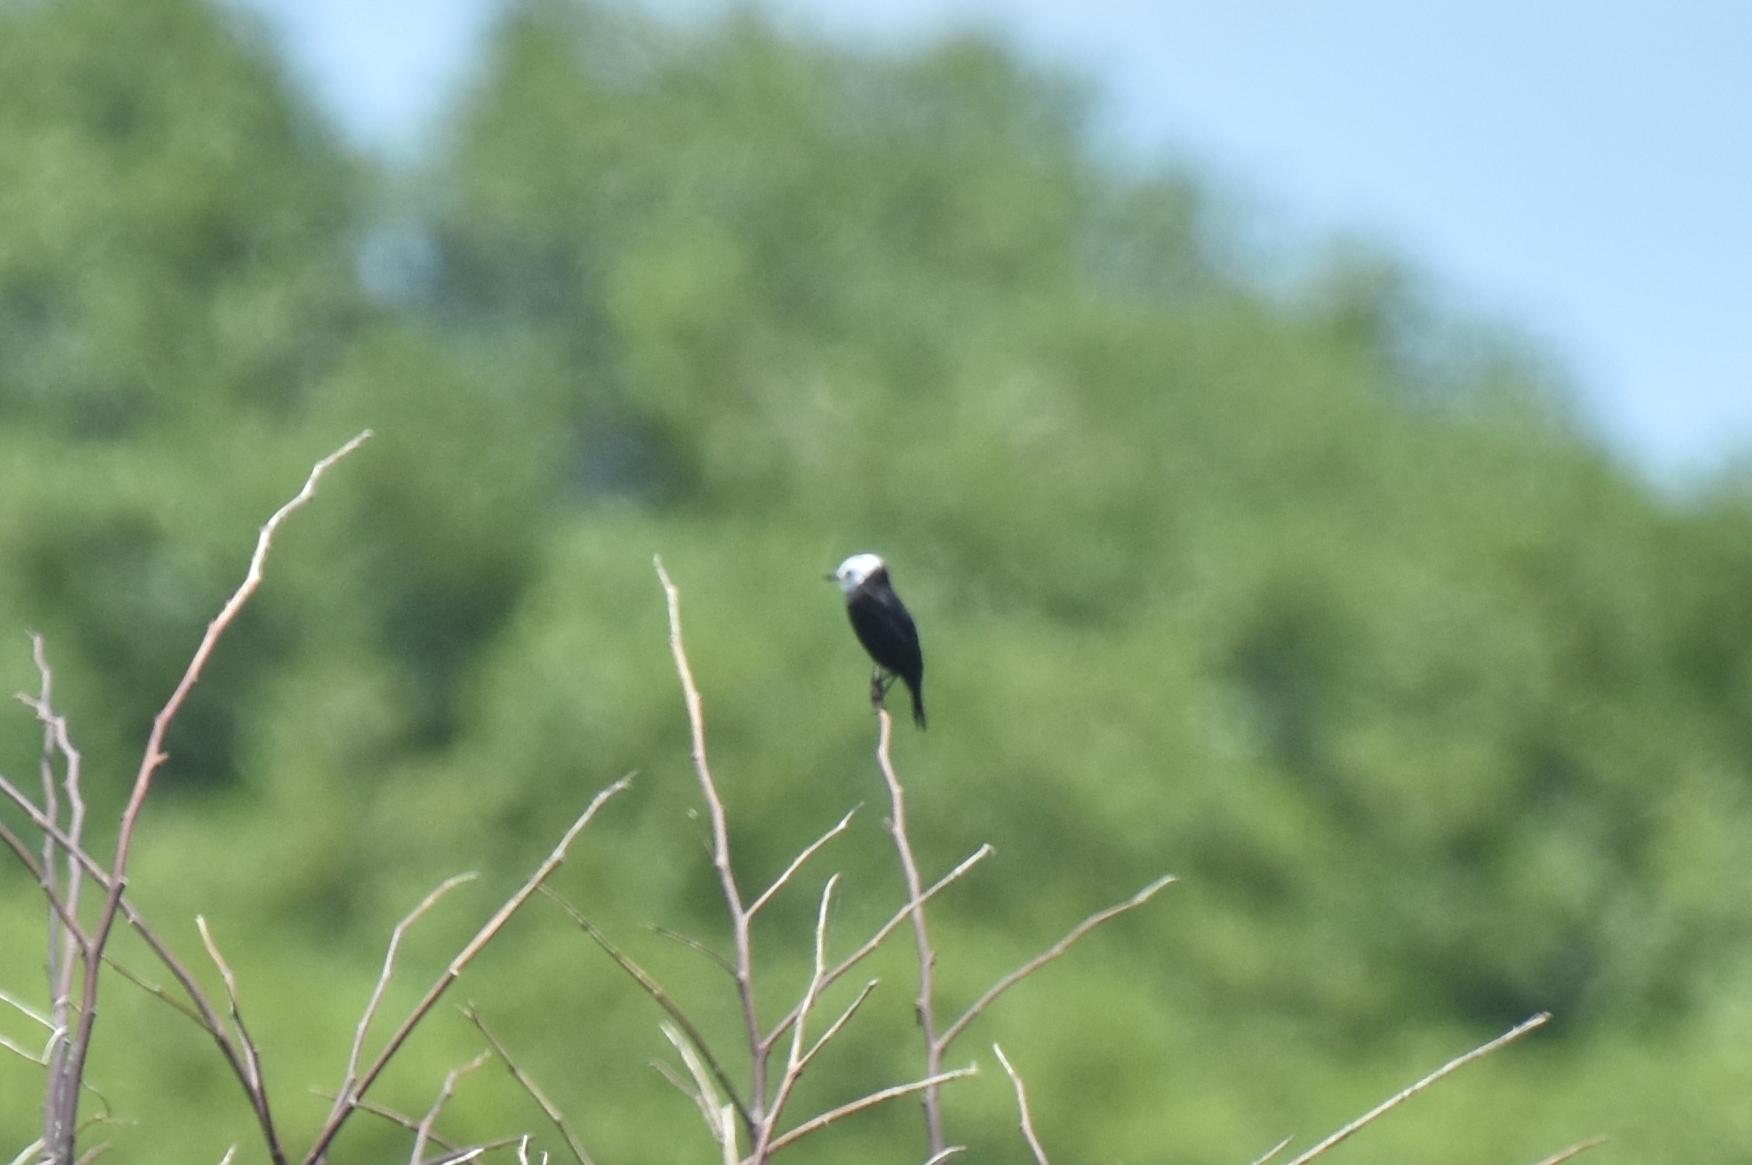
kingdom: Animalia
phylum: Chordata
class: Aves
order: Passeriformes
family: Tyrannidae
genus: Arundinicola
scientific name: Arundinicola leucocephala
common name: White-headed marsh tyrant
